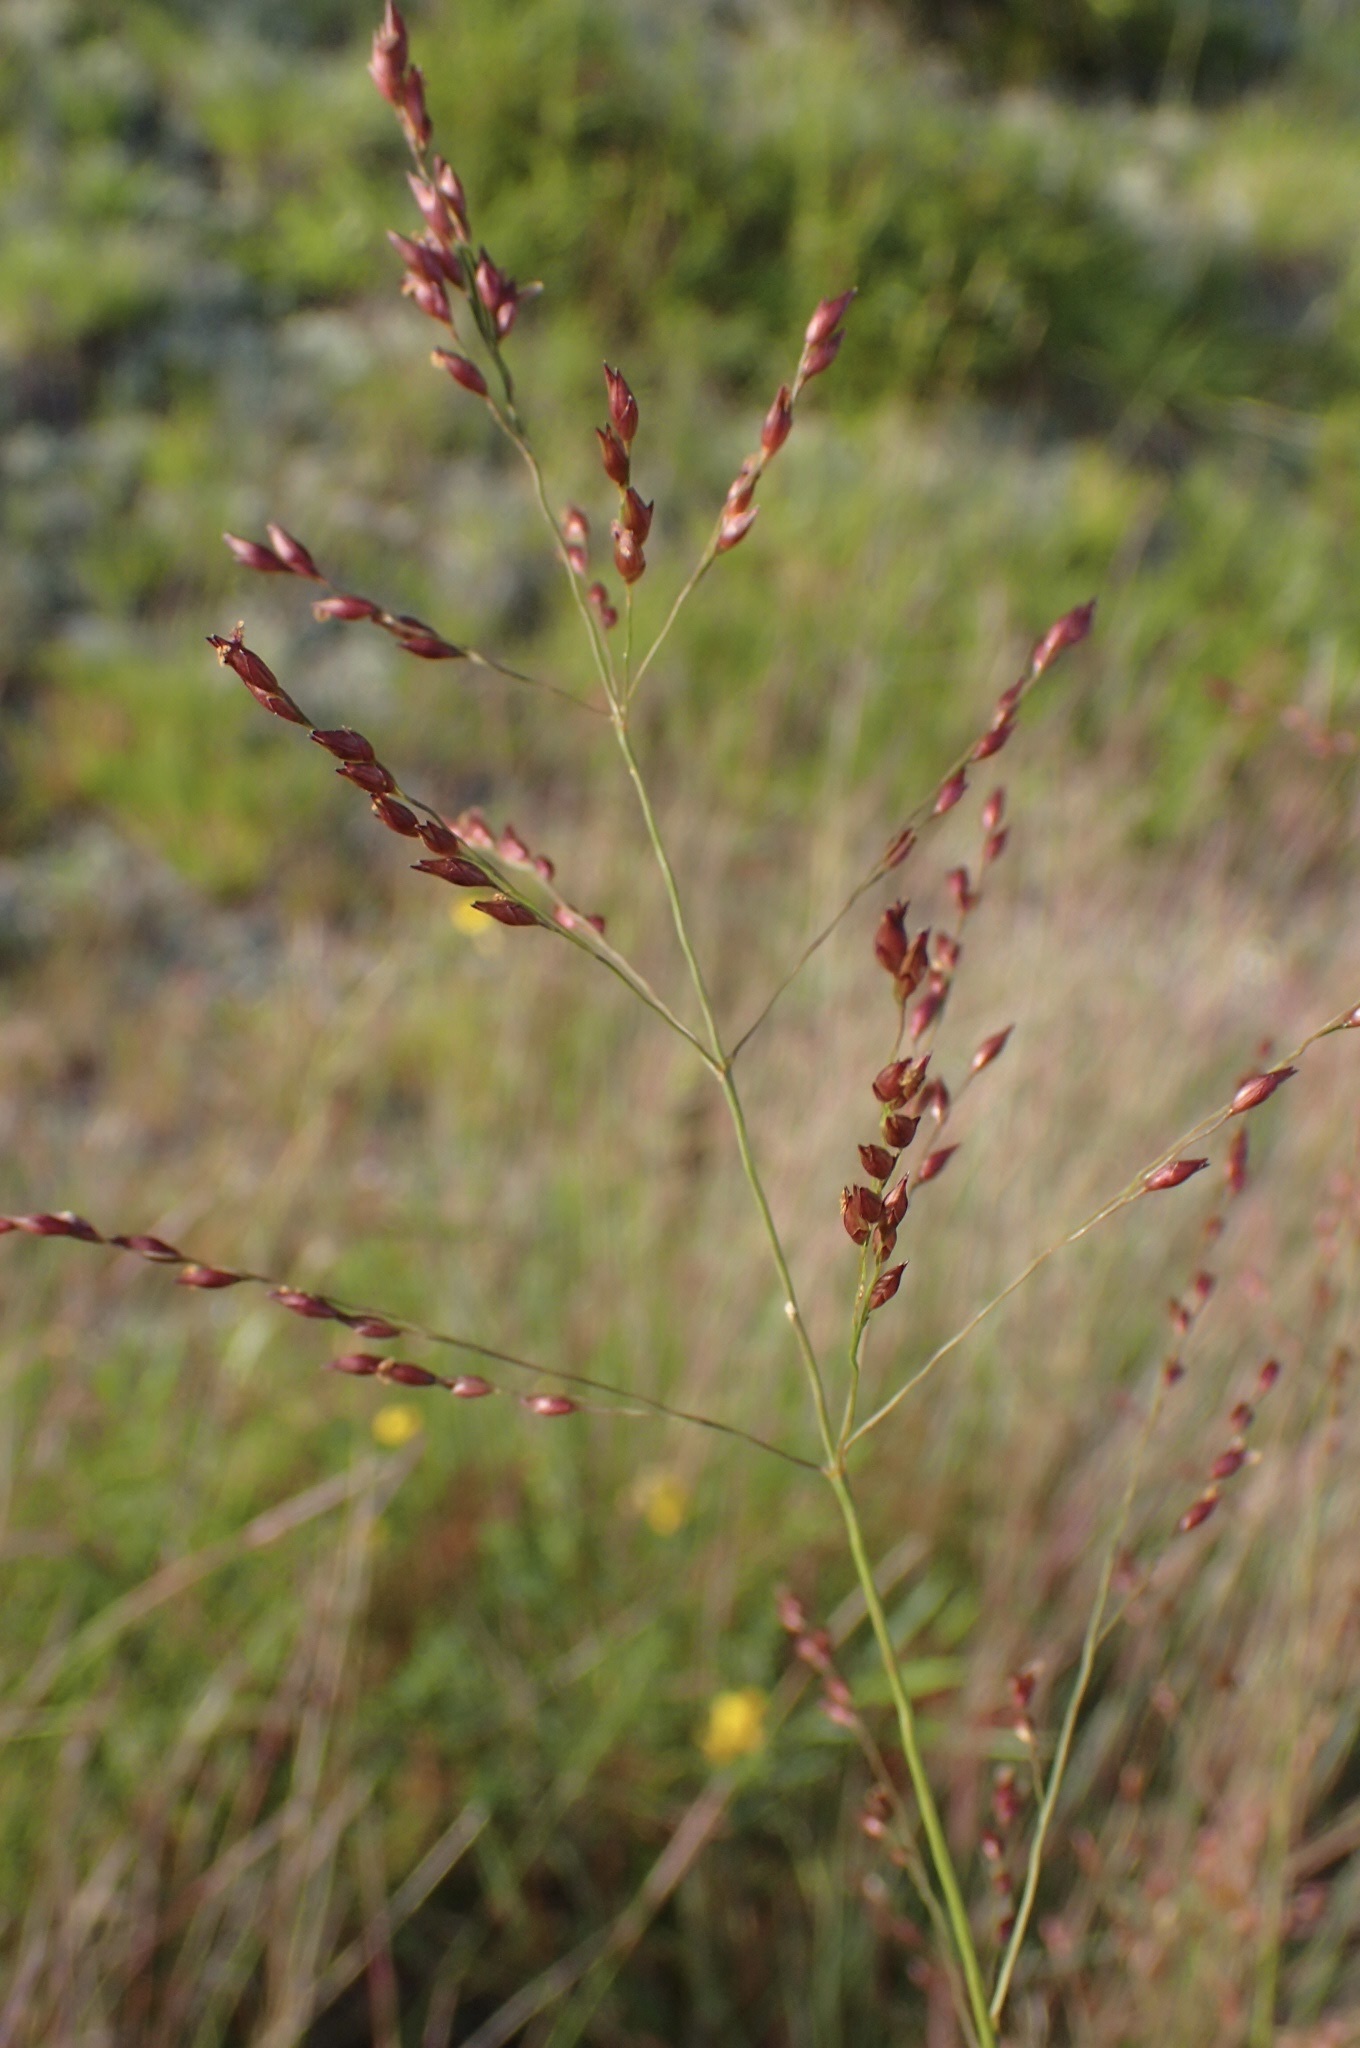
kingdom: Plantae
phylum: Tracheophyta
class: Liliopsida
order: Poales
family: Poaceae
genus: Panicum
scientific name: Panicum virgatum
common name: Switchgrass
